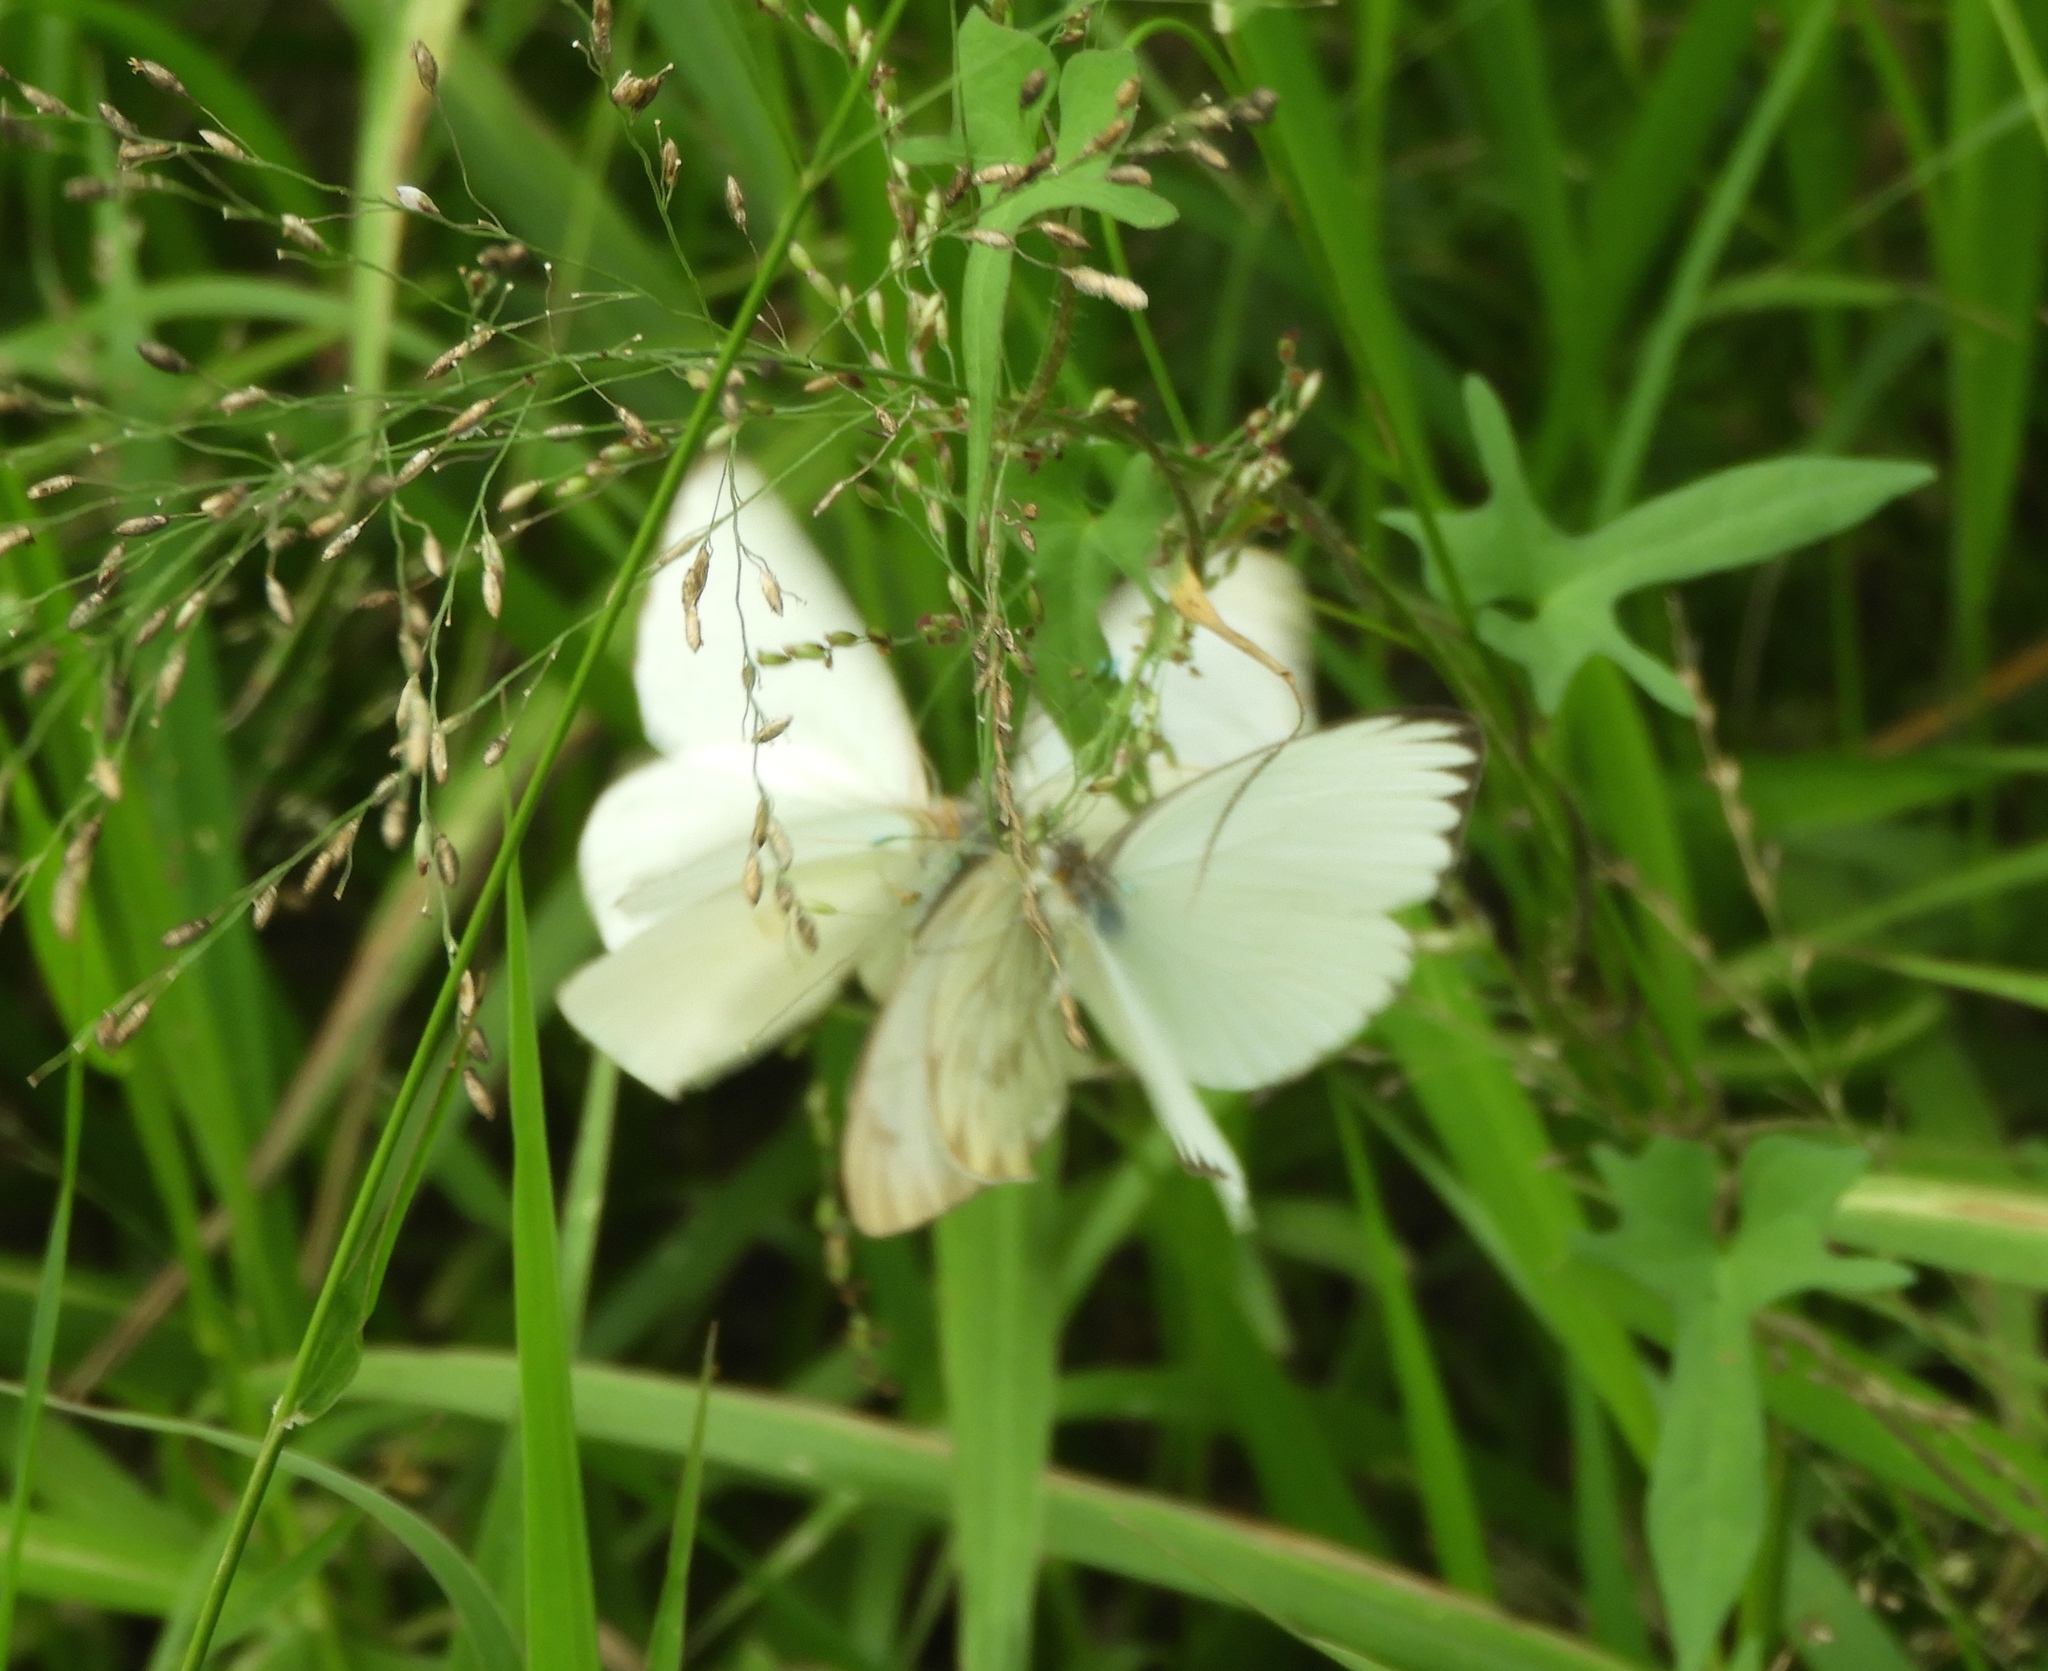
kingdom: Animalia
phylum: Arthropoda
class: Insecta
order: Lepidoptera
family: Pieridae
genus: Ascia
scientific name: Ascia monuste
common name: Great southern white
